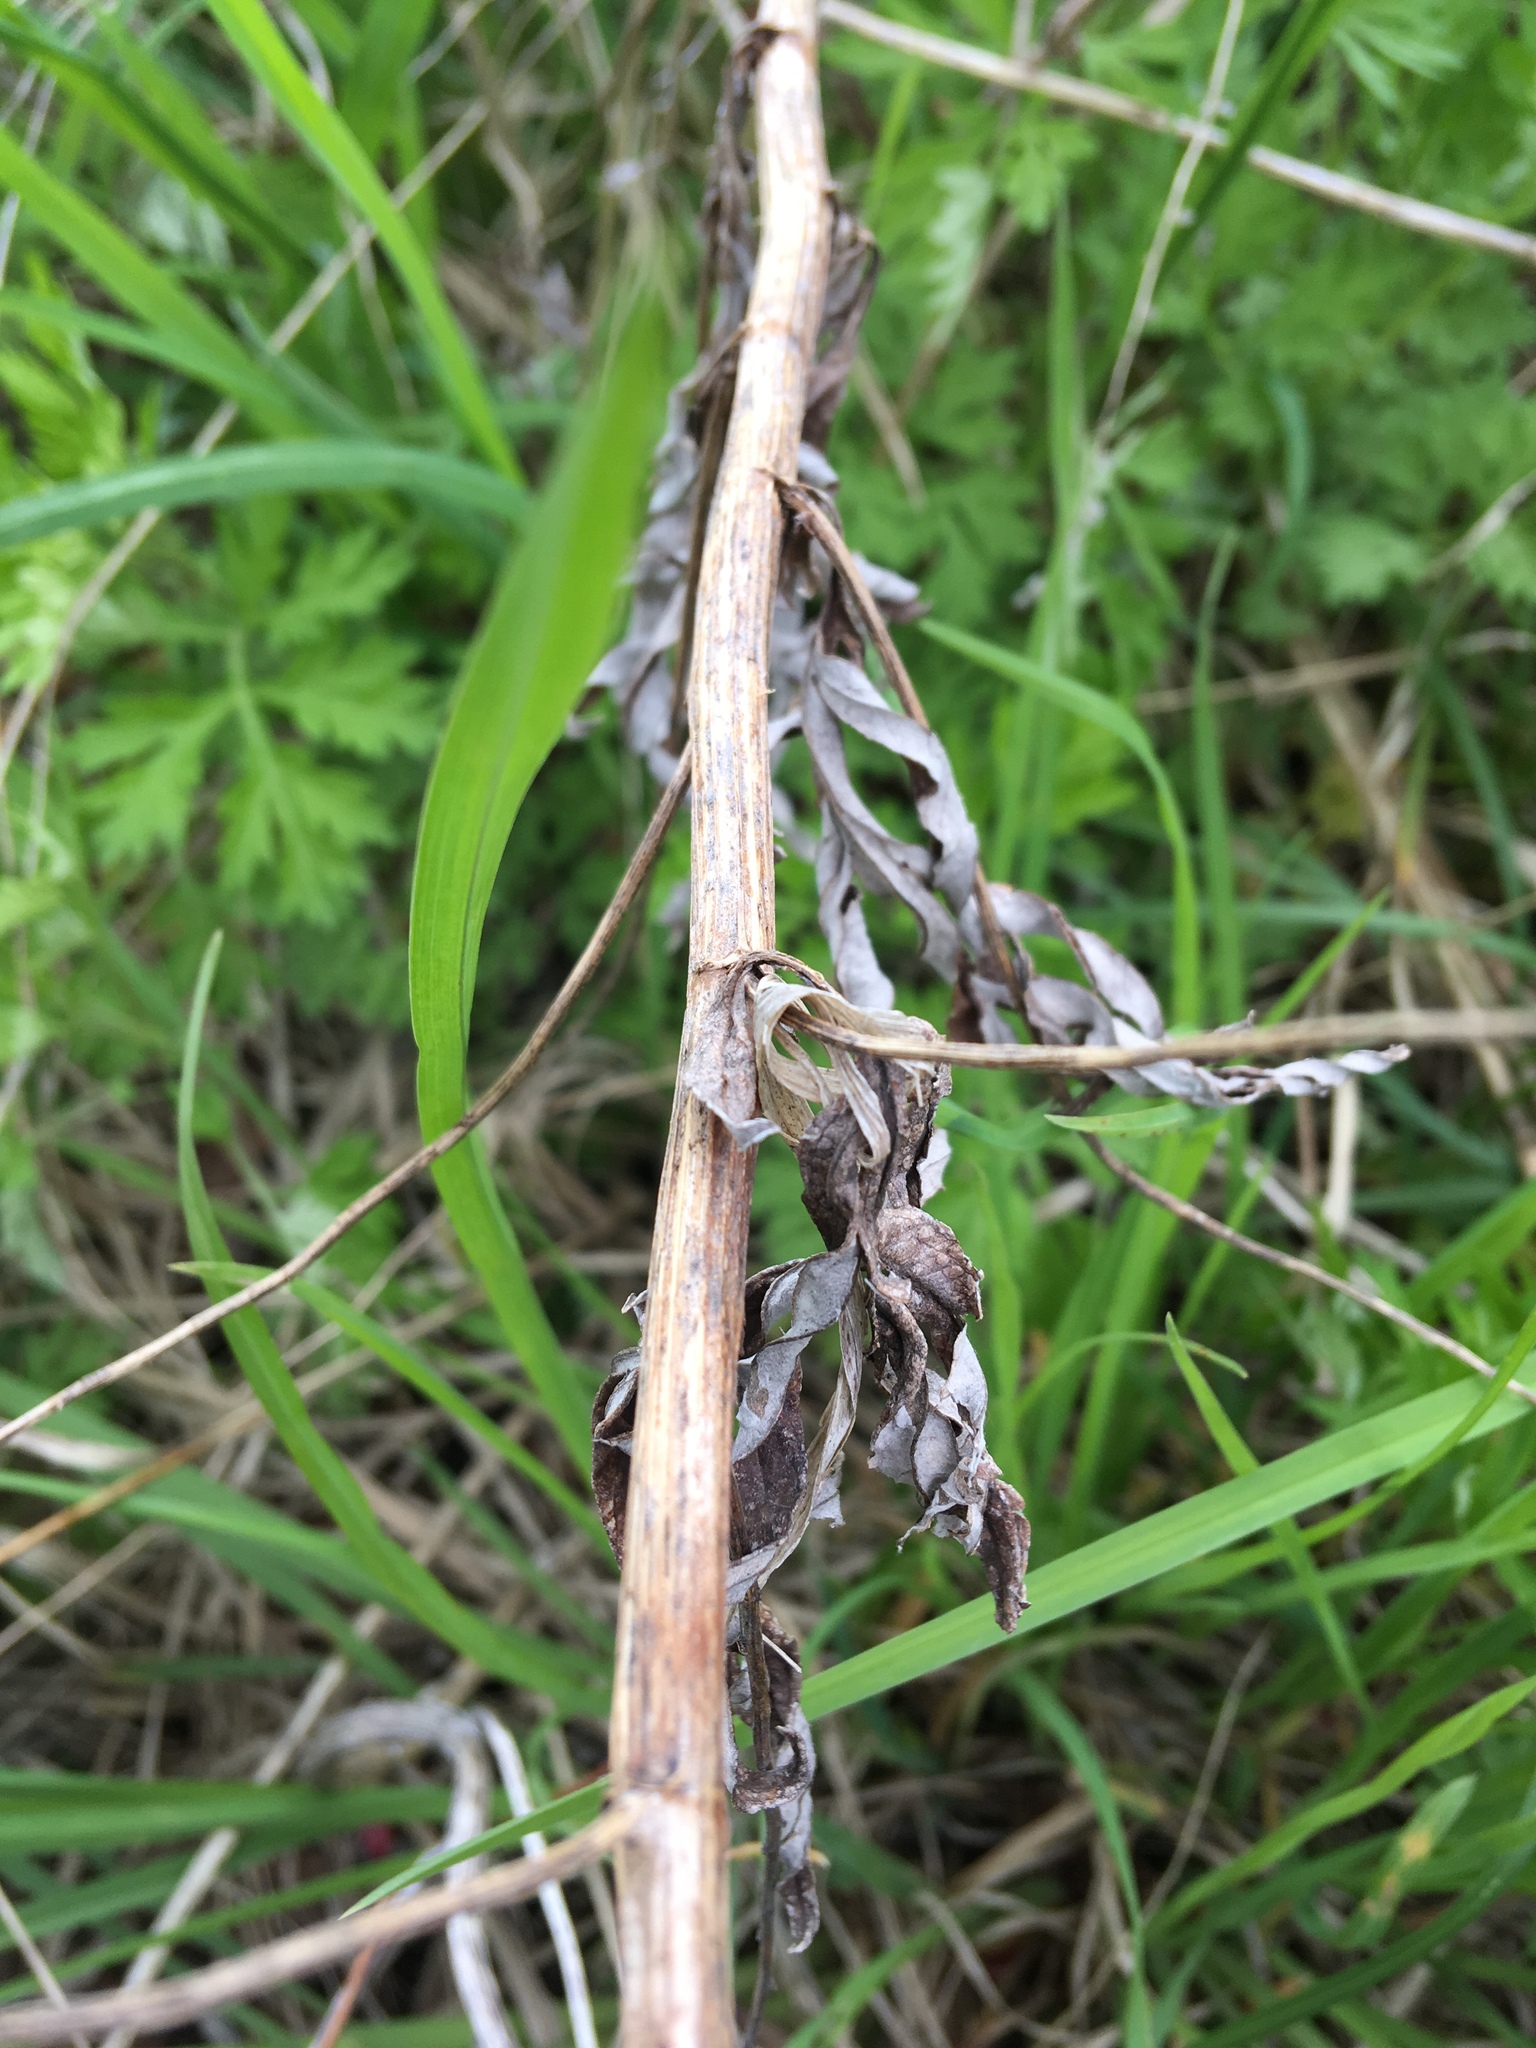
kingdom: Plantae
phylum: Tracheophyta
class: Magnoliopsida
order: Asterales
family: Asteraceae
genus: Artemisia
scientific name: Artemisia vulgaris
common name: Mugwort
